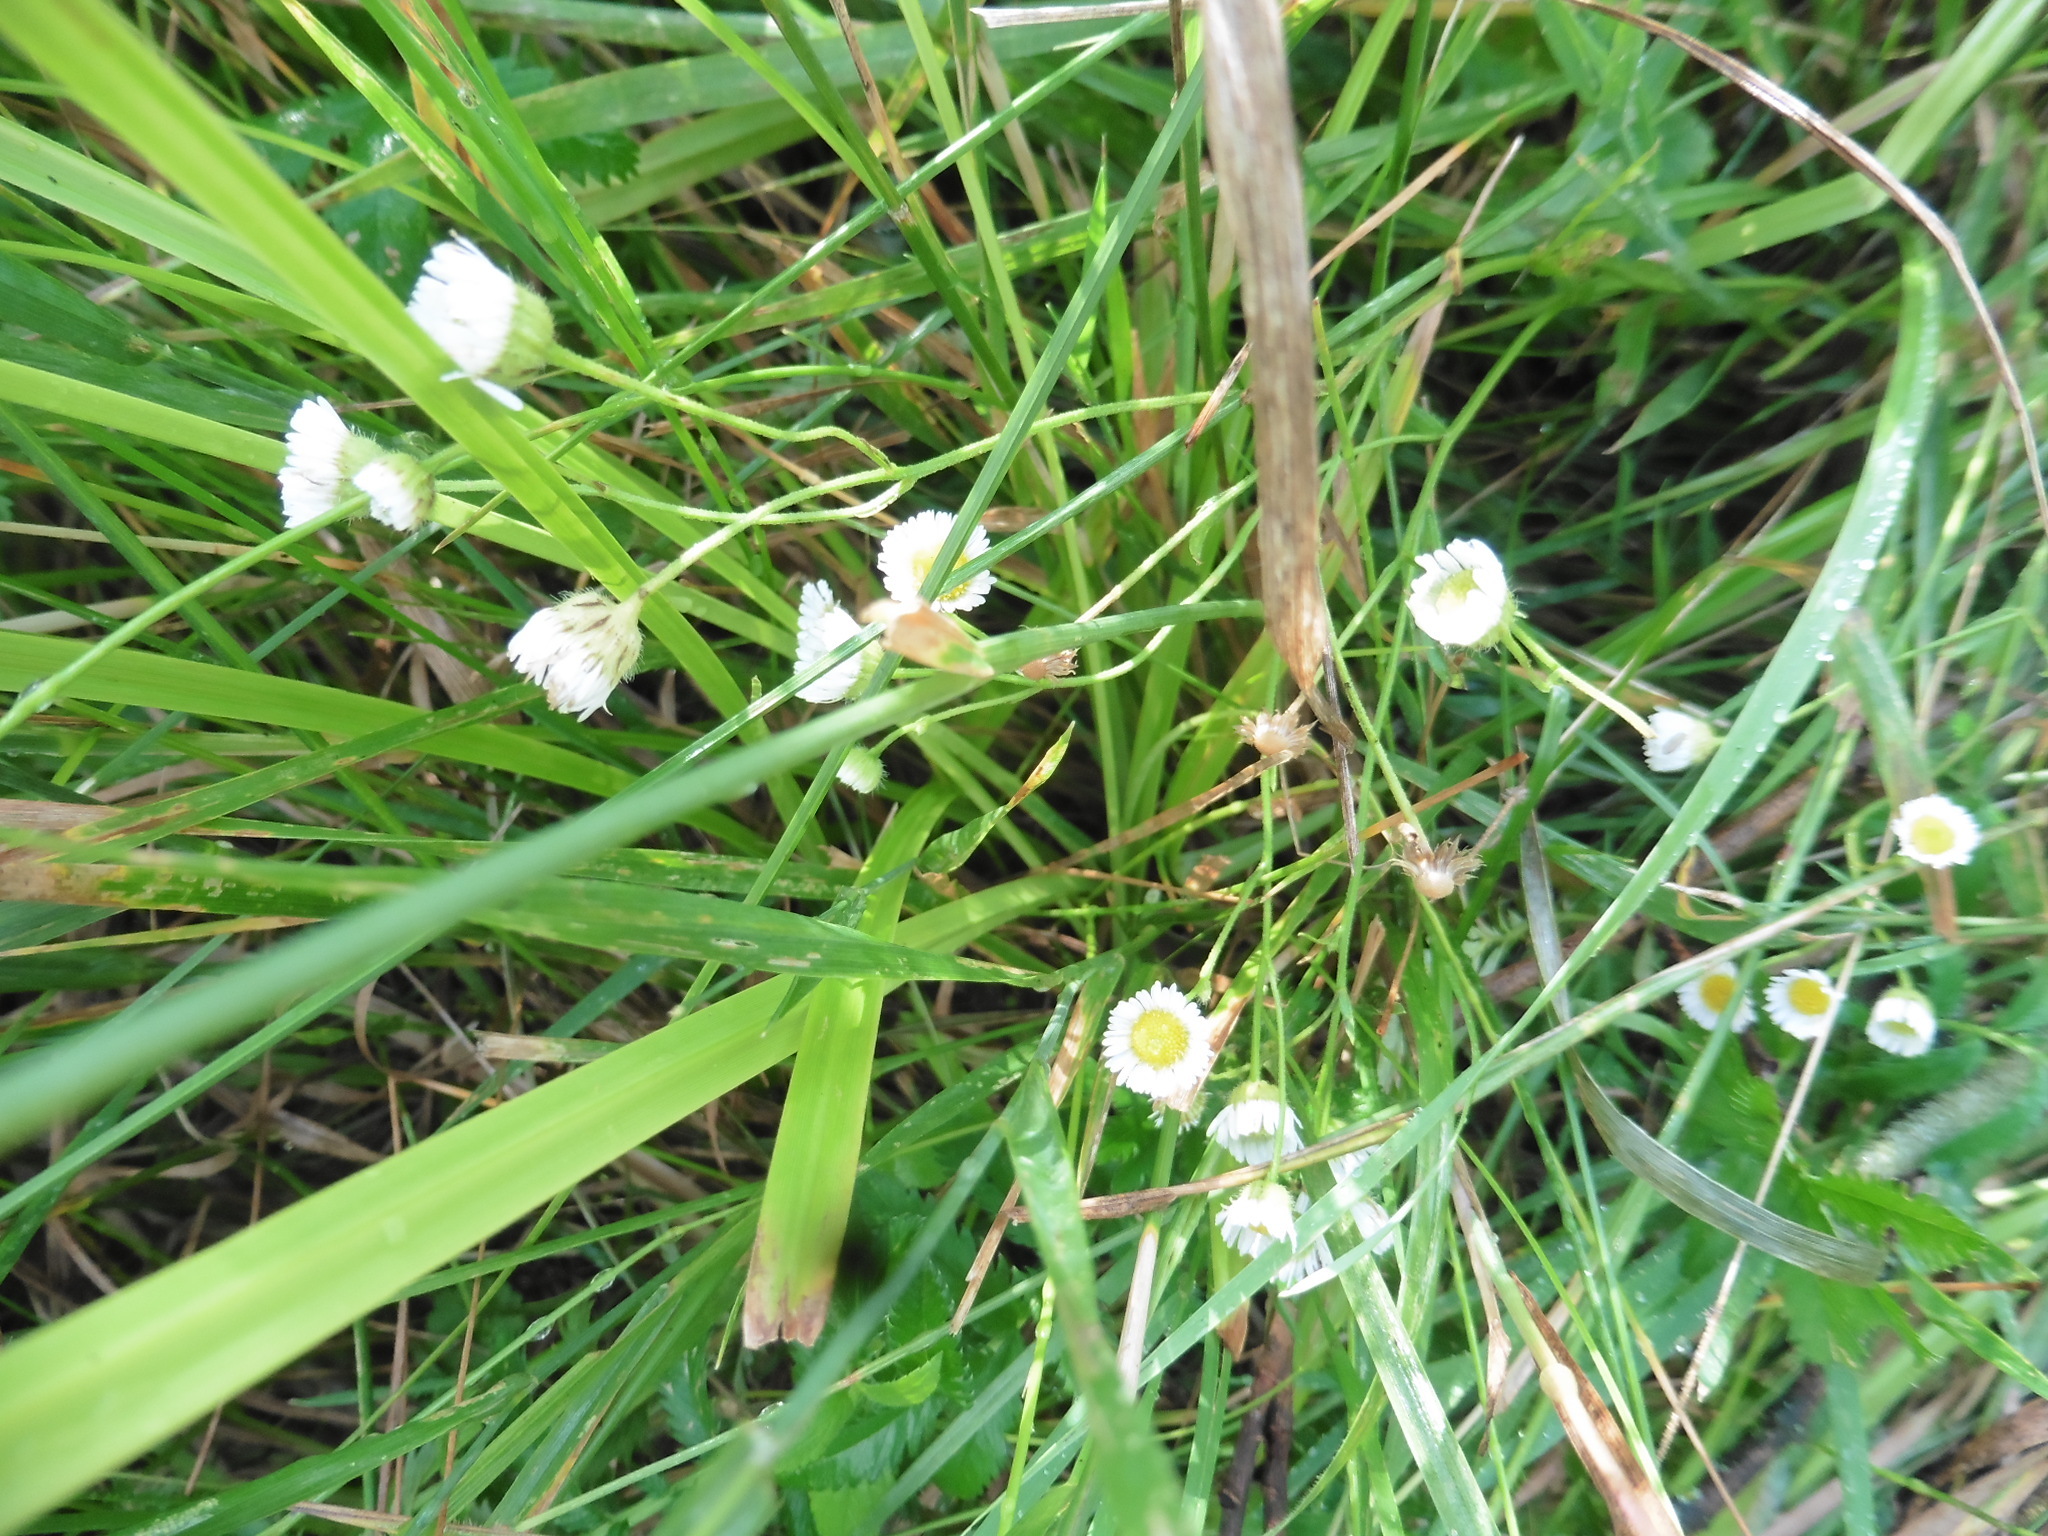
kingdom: Plantae
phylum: Tracheophyta
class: Magnoliopsida
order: Asterales
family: Asteraceae
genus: Erigeron
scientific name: Erigeron strigosus
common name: Common eastern fleabane
